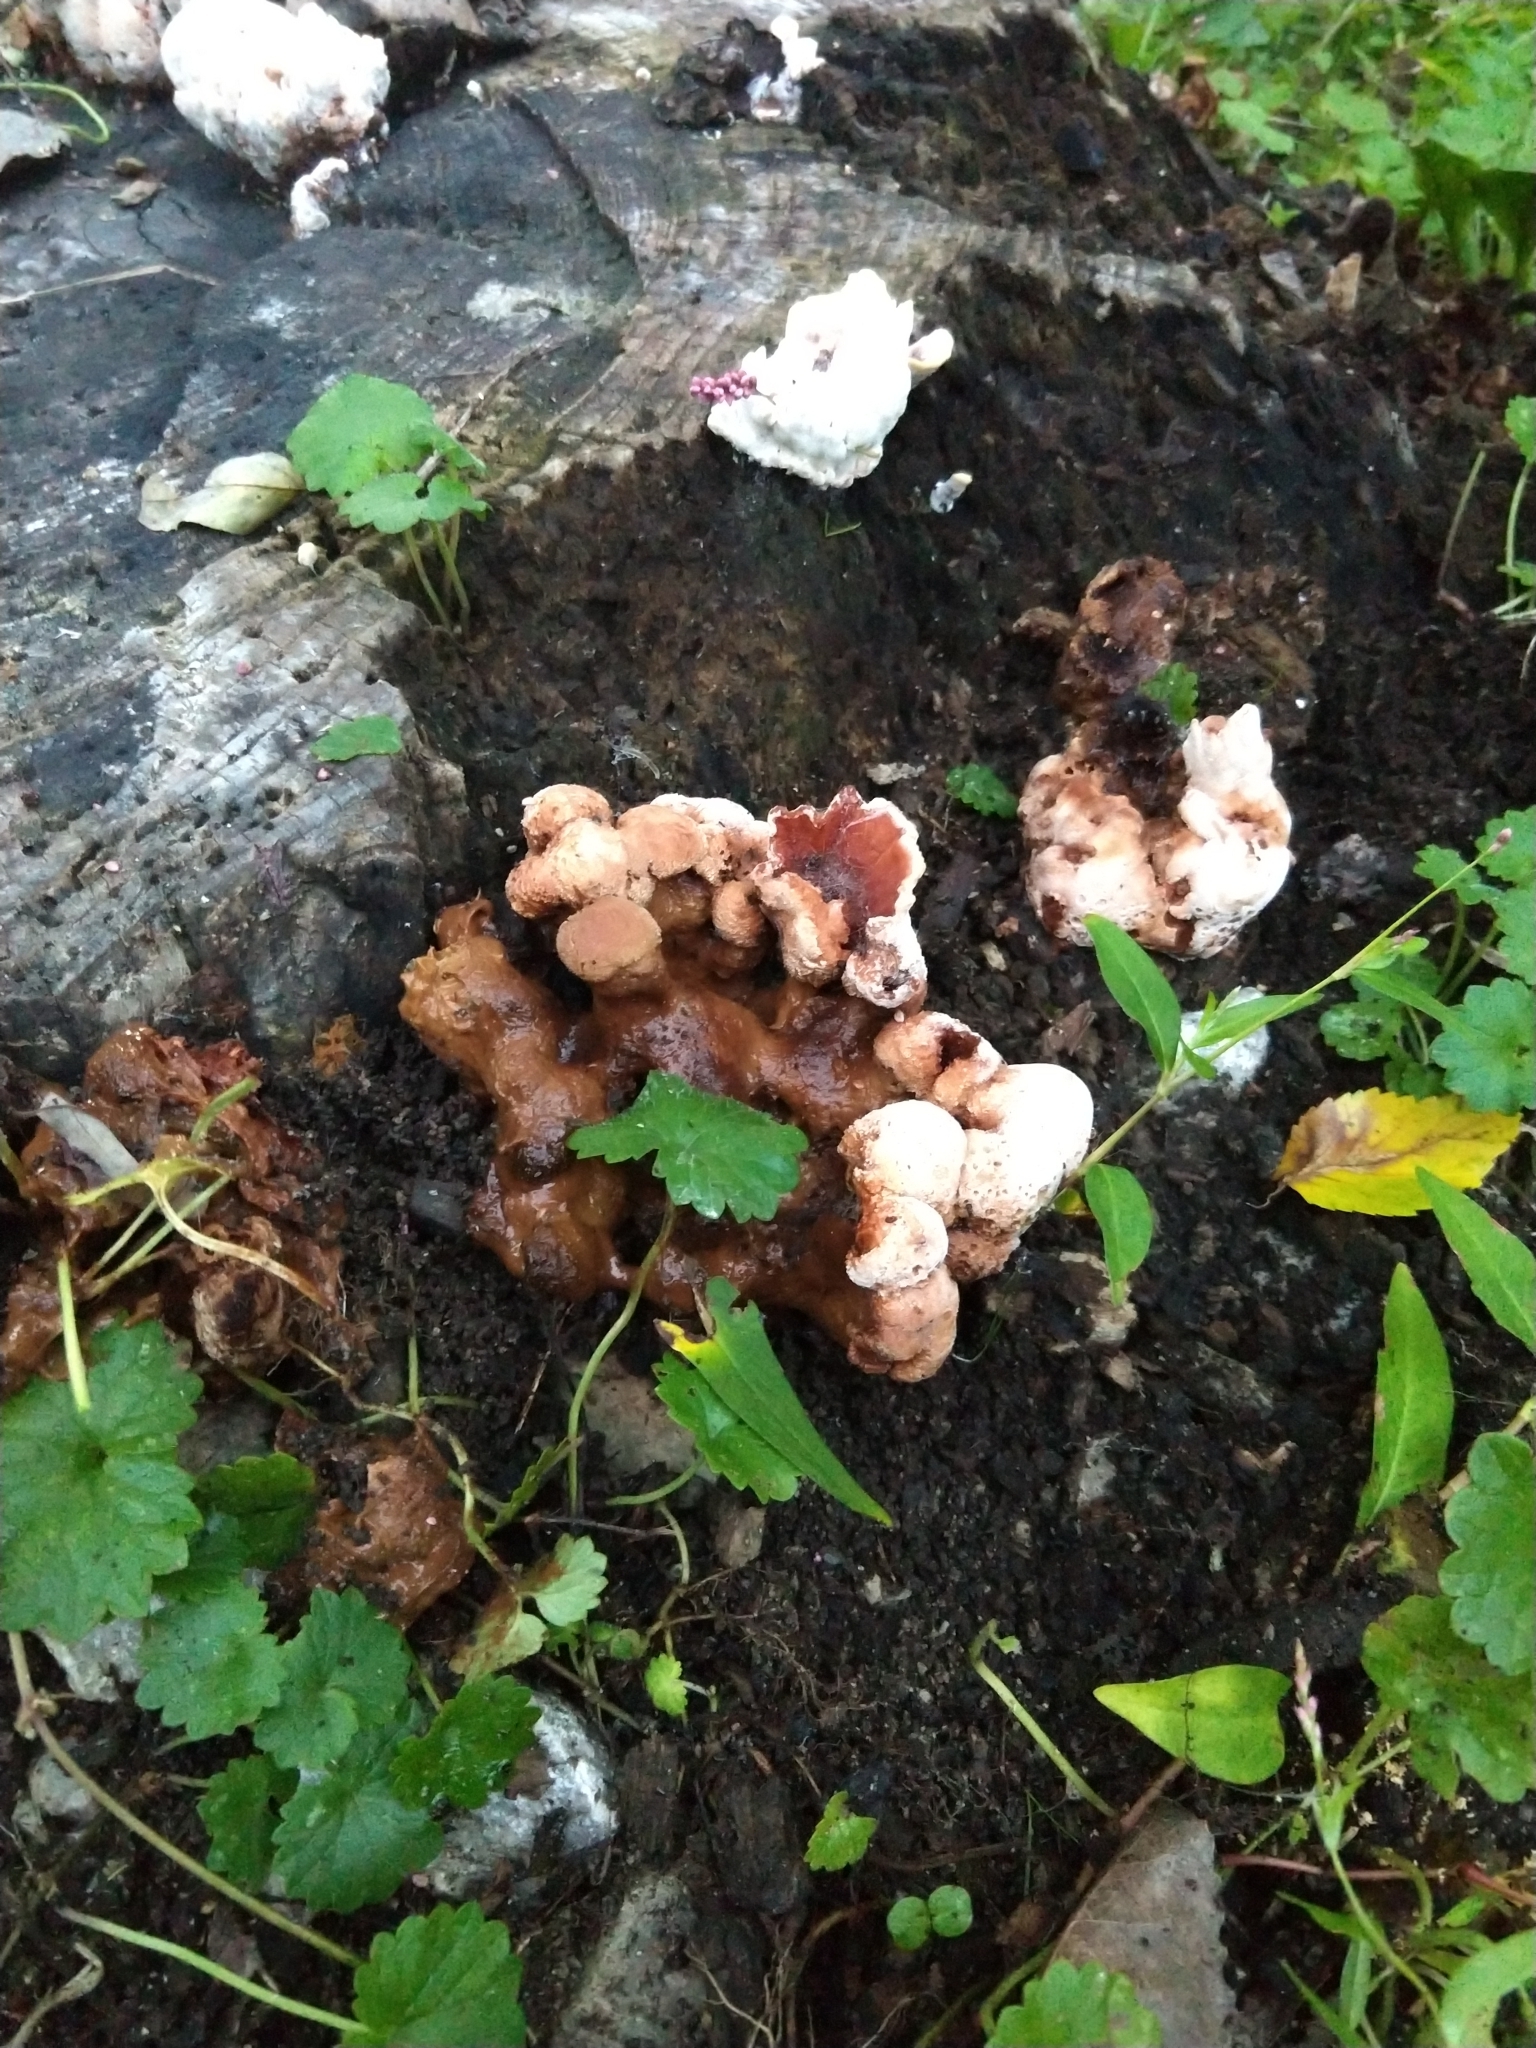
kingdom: Fungi
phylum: Basidiomycota
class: Agaricomycetes
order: Polyporales
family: Podoscyphaceae
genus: Abortiporus
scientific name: Abortiporus biennis
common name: Blushing rosette
